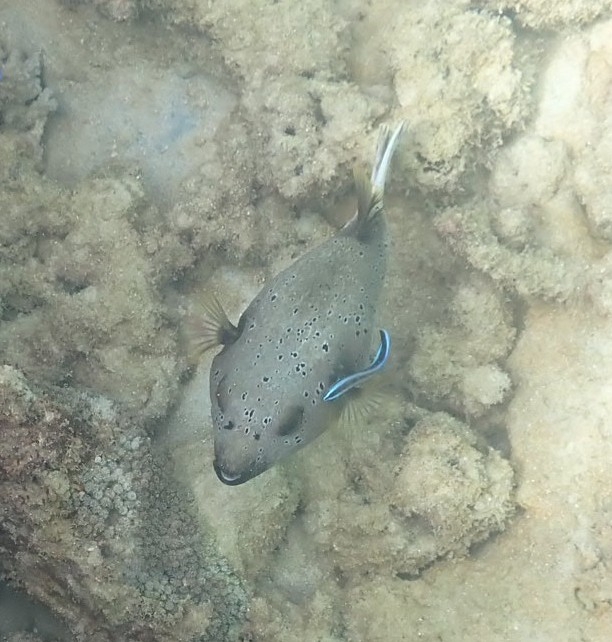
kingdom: Animalia
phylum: Chordata
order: Tetraodontiformes
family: Tetraodontidae
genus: Arothron
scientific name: Arothron nigropunctatus
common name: Black spotted blow fish
